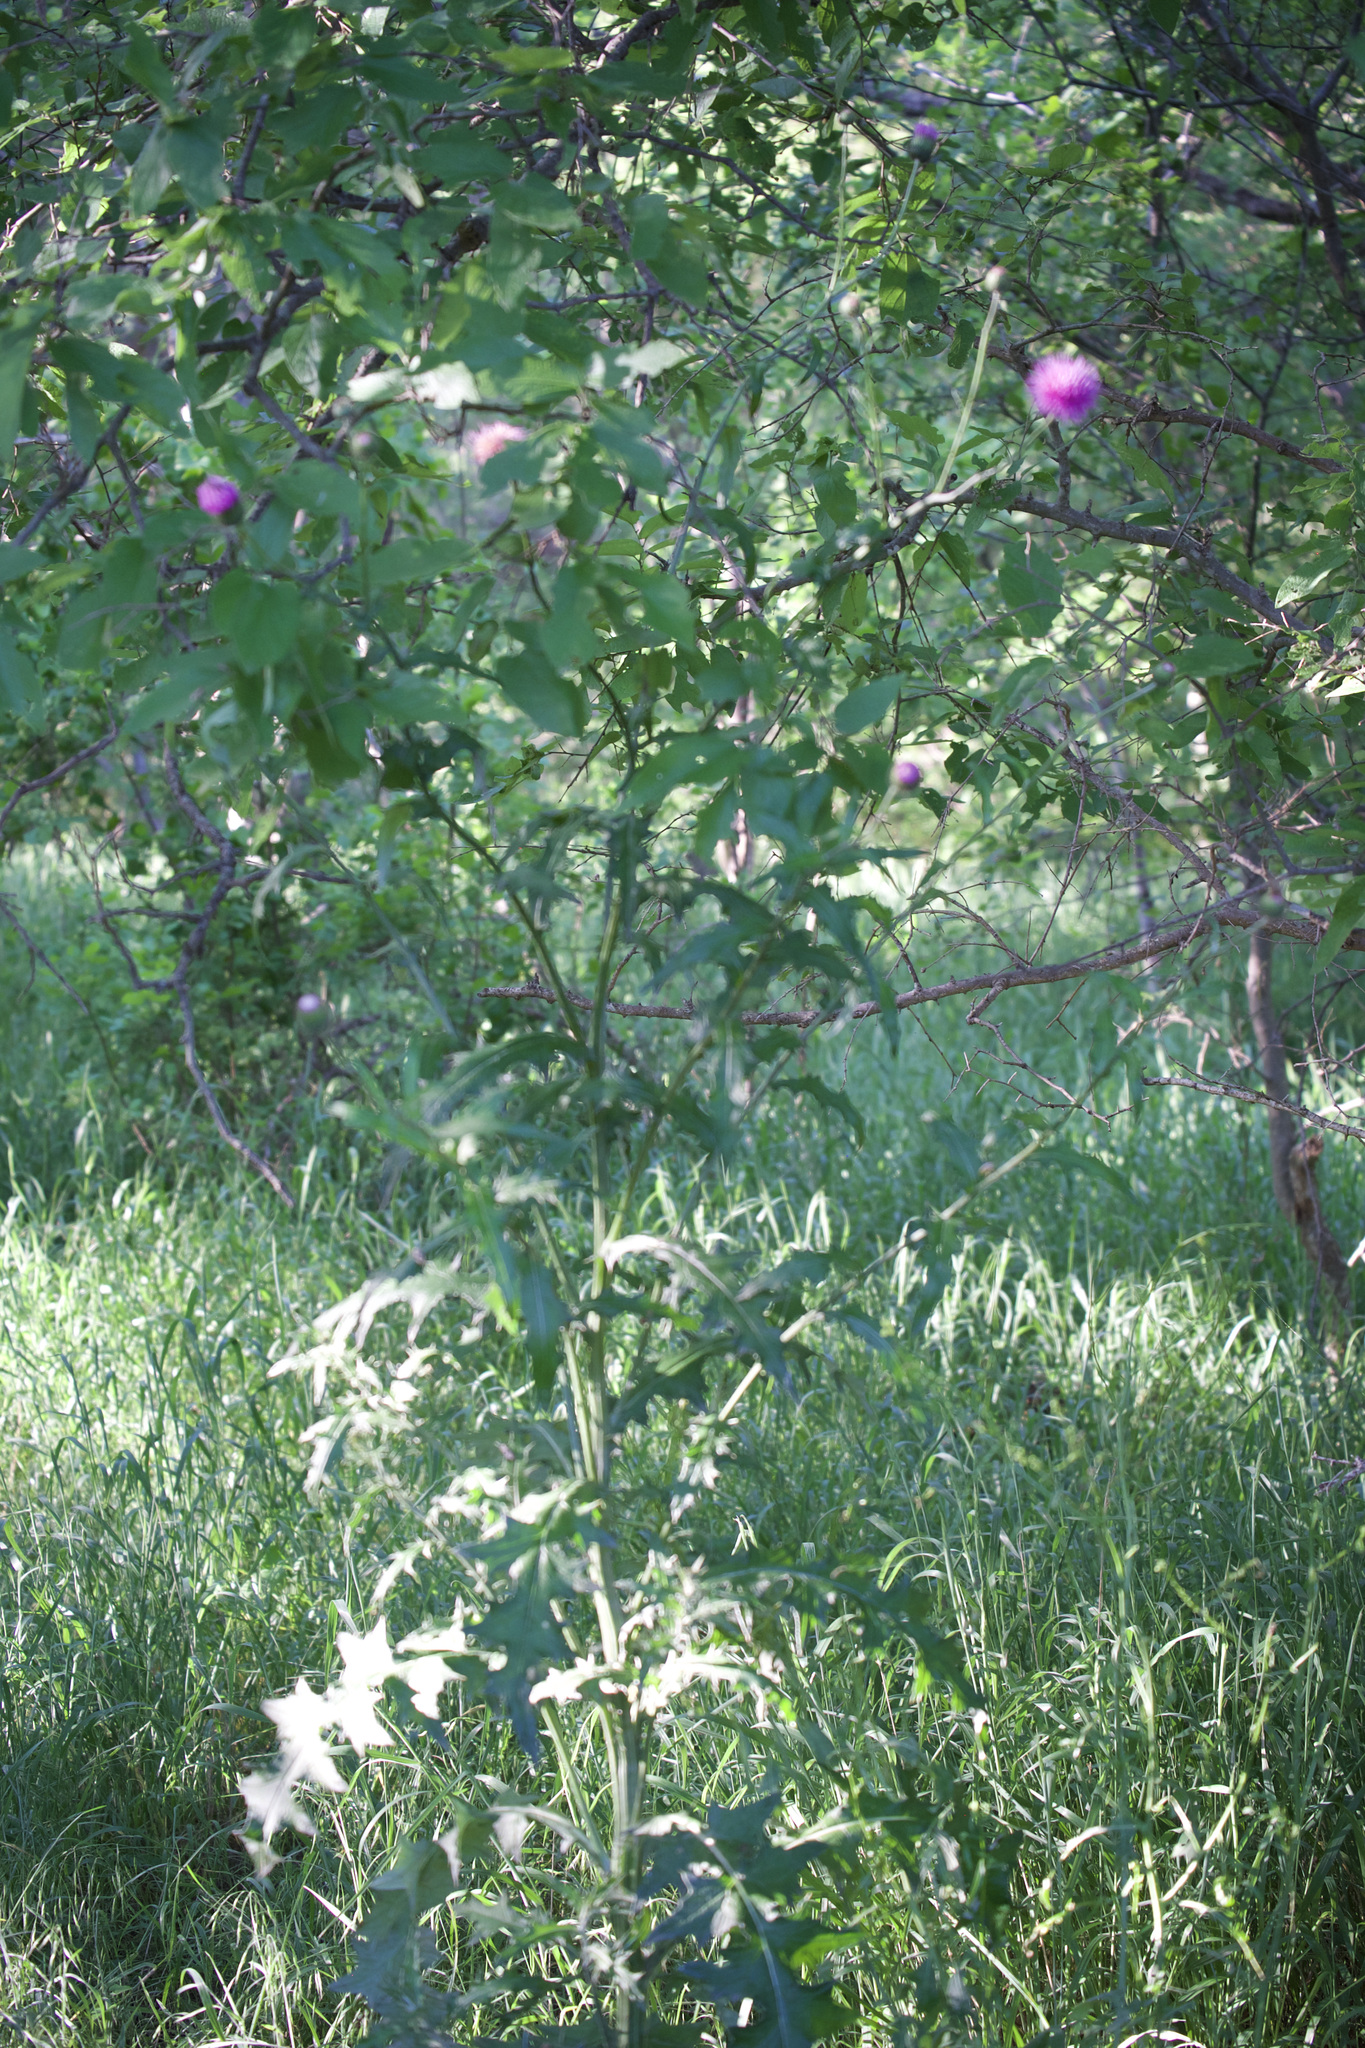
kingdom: Plantae
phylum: Tracheophyta
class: Magnoliopsida
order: Asterales
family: Asteraceae
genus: Cirsium
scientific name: Cirsium texanum
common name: Texas purple thistle
